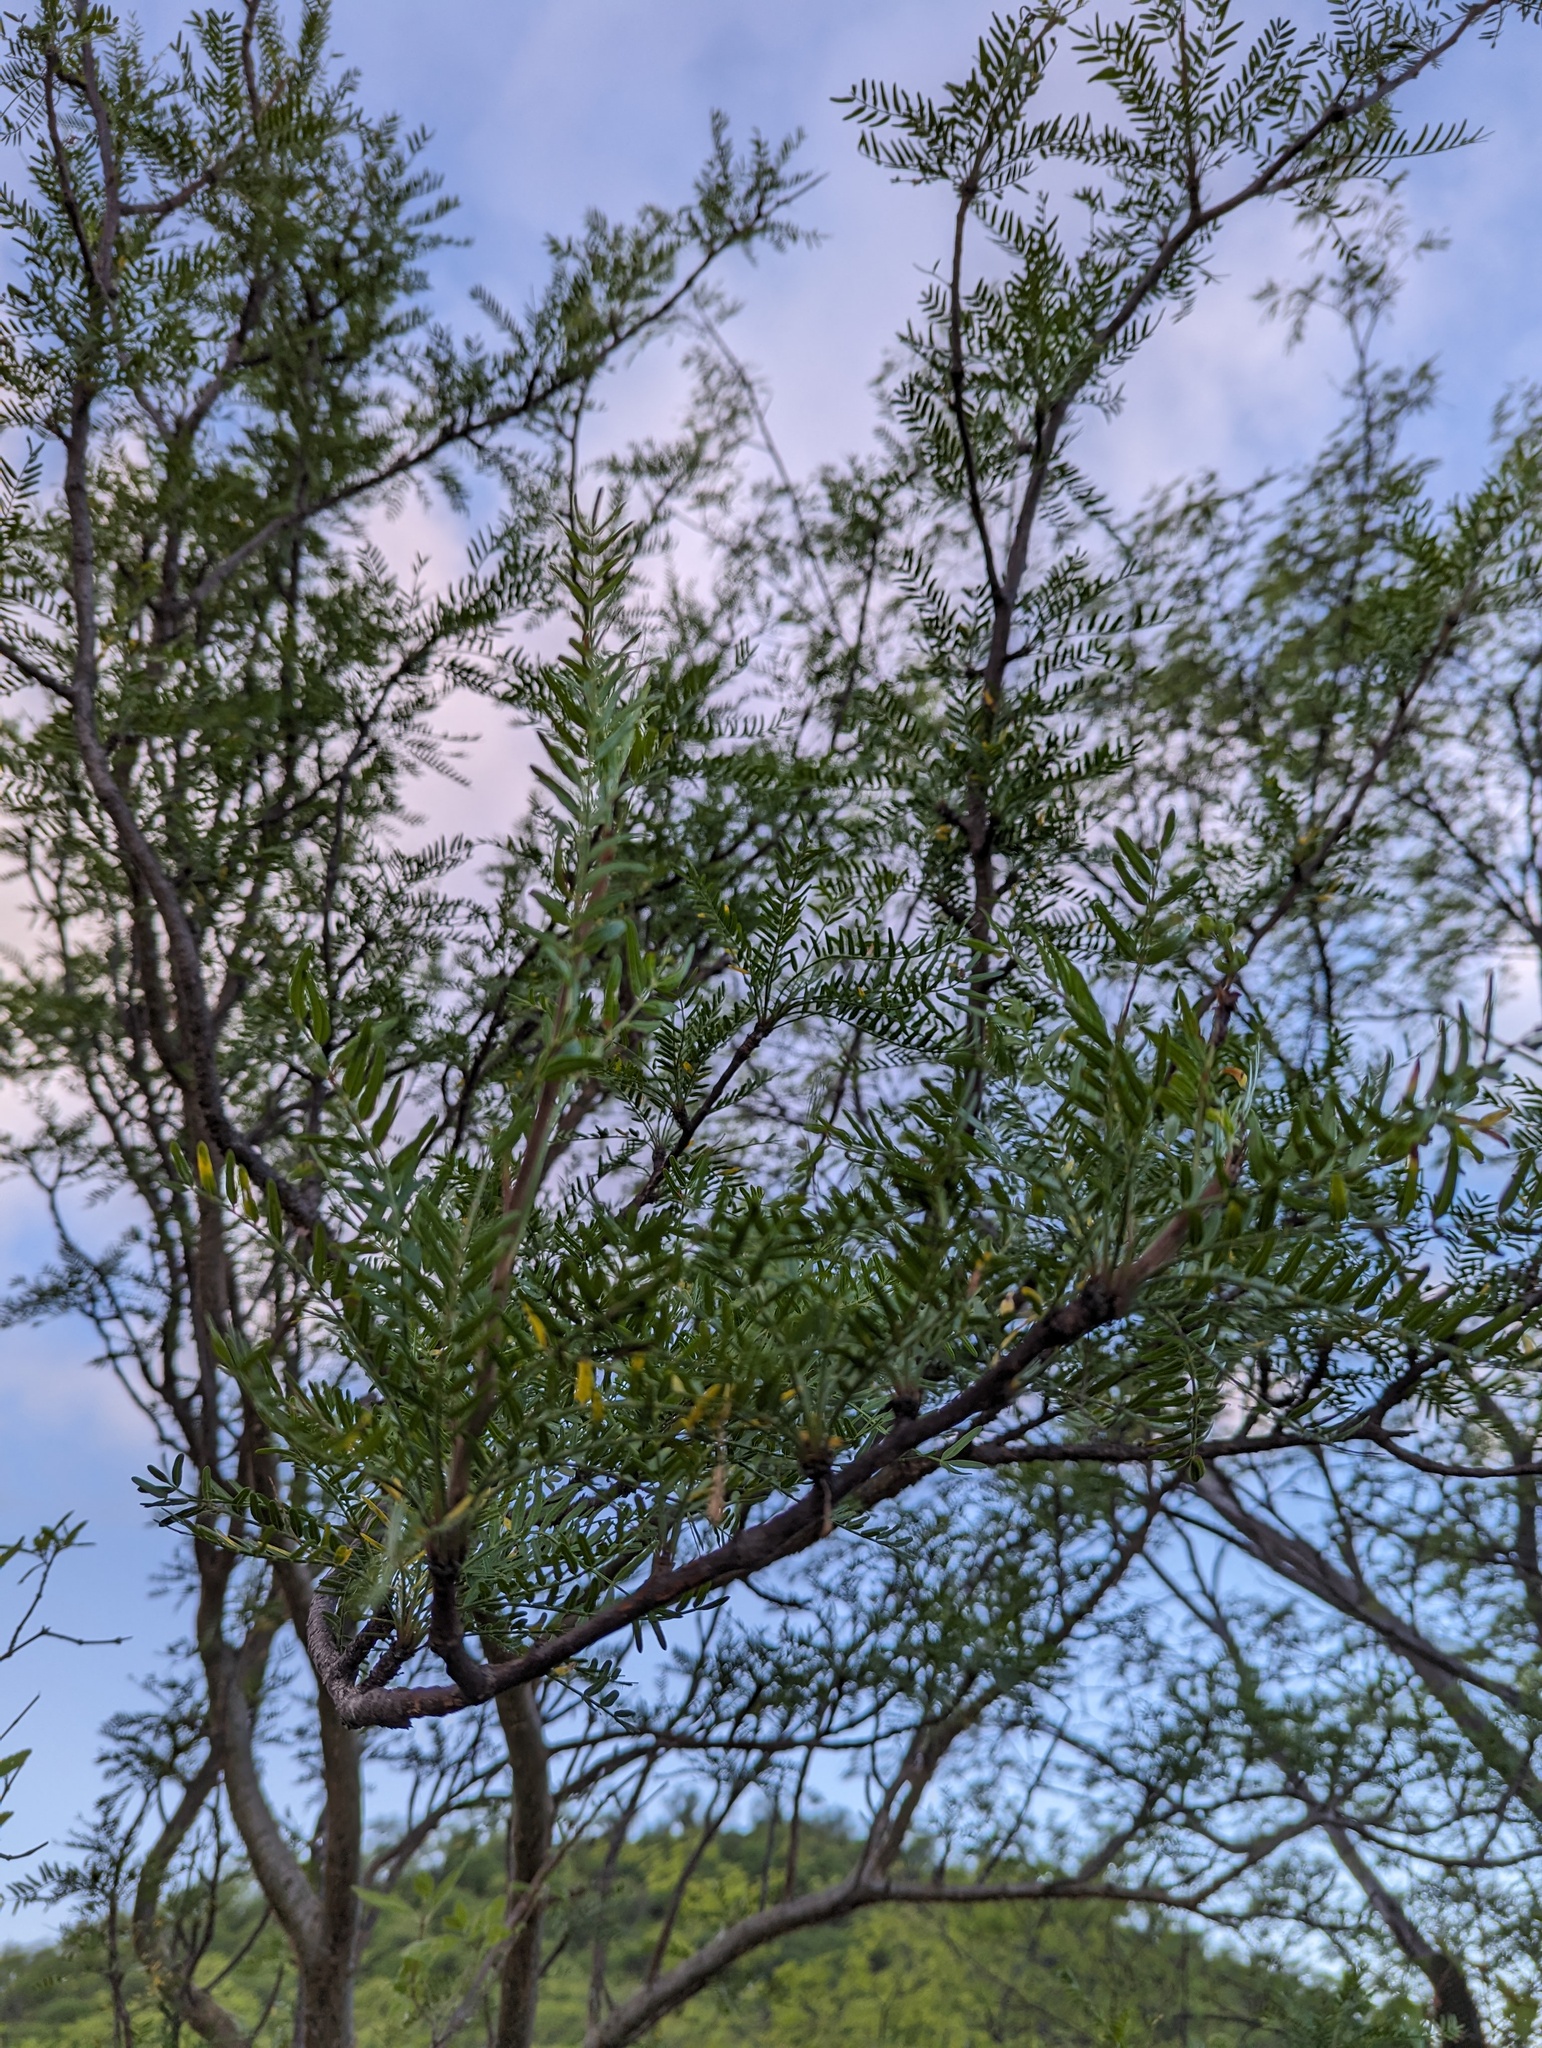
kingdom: Plantae
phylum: Tracheophyta
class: Magnoliopsida
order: Sapindales
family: Burseraceae
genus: Bursera
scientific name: Bursera microphylla
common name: Elephant tree
